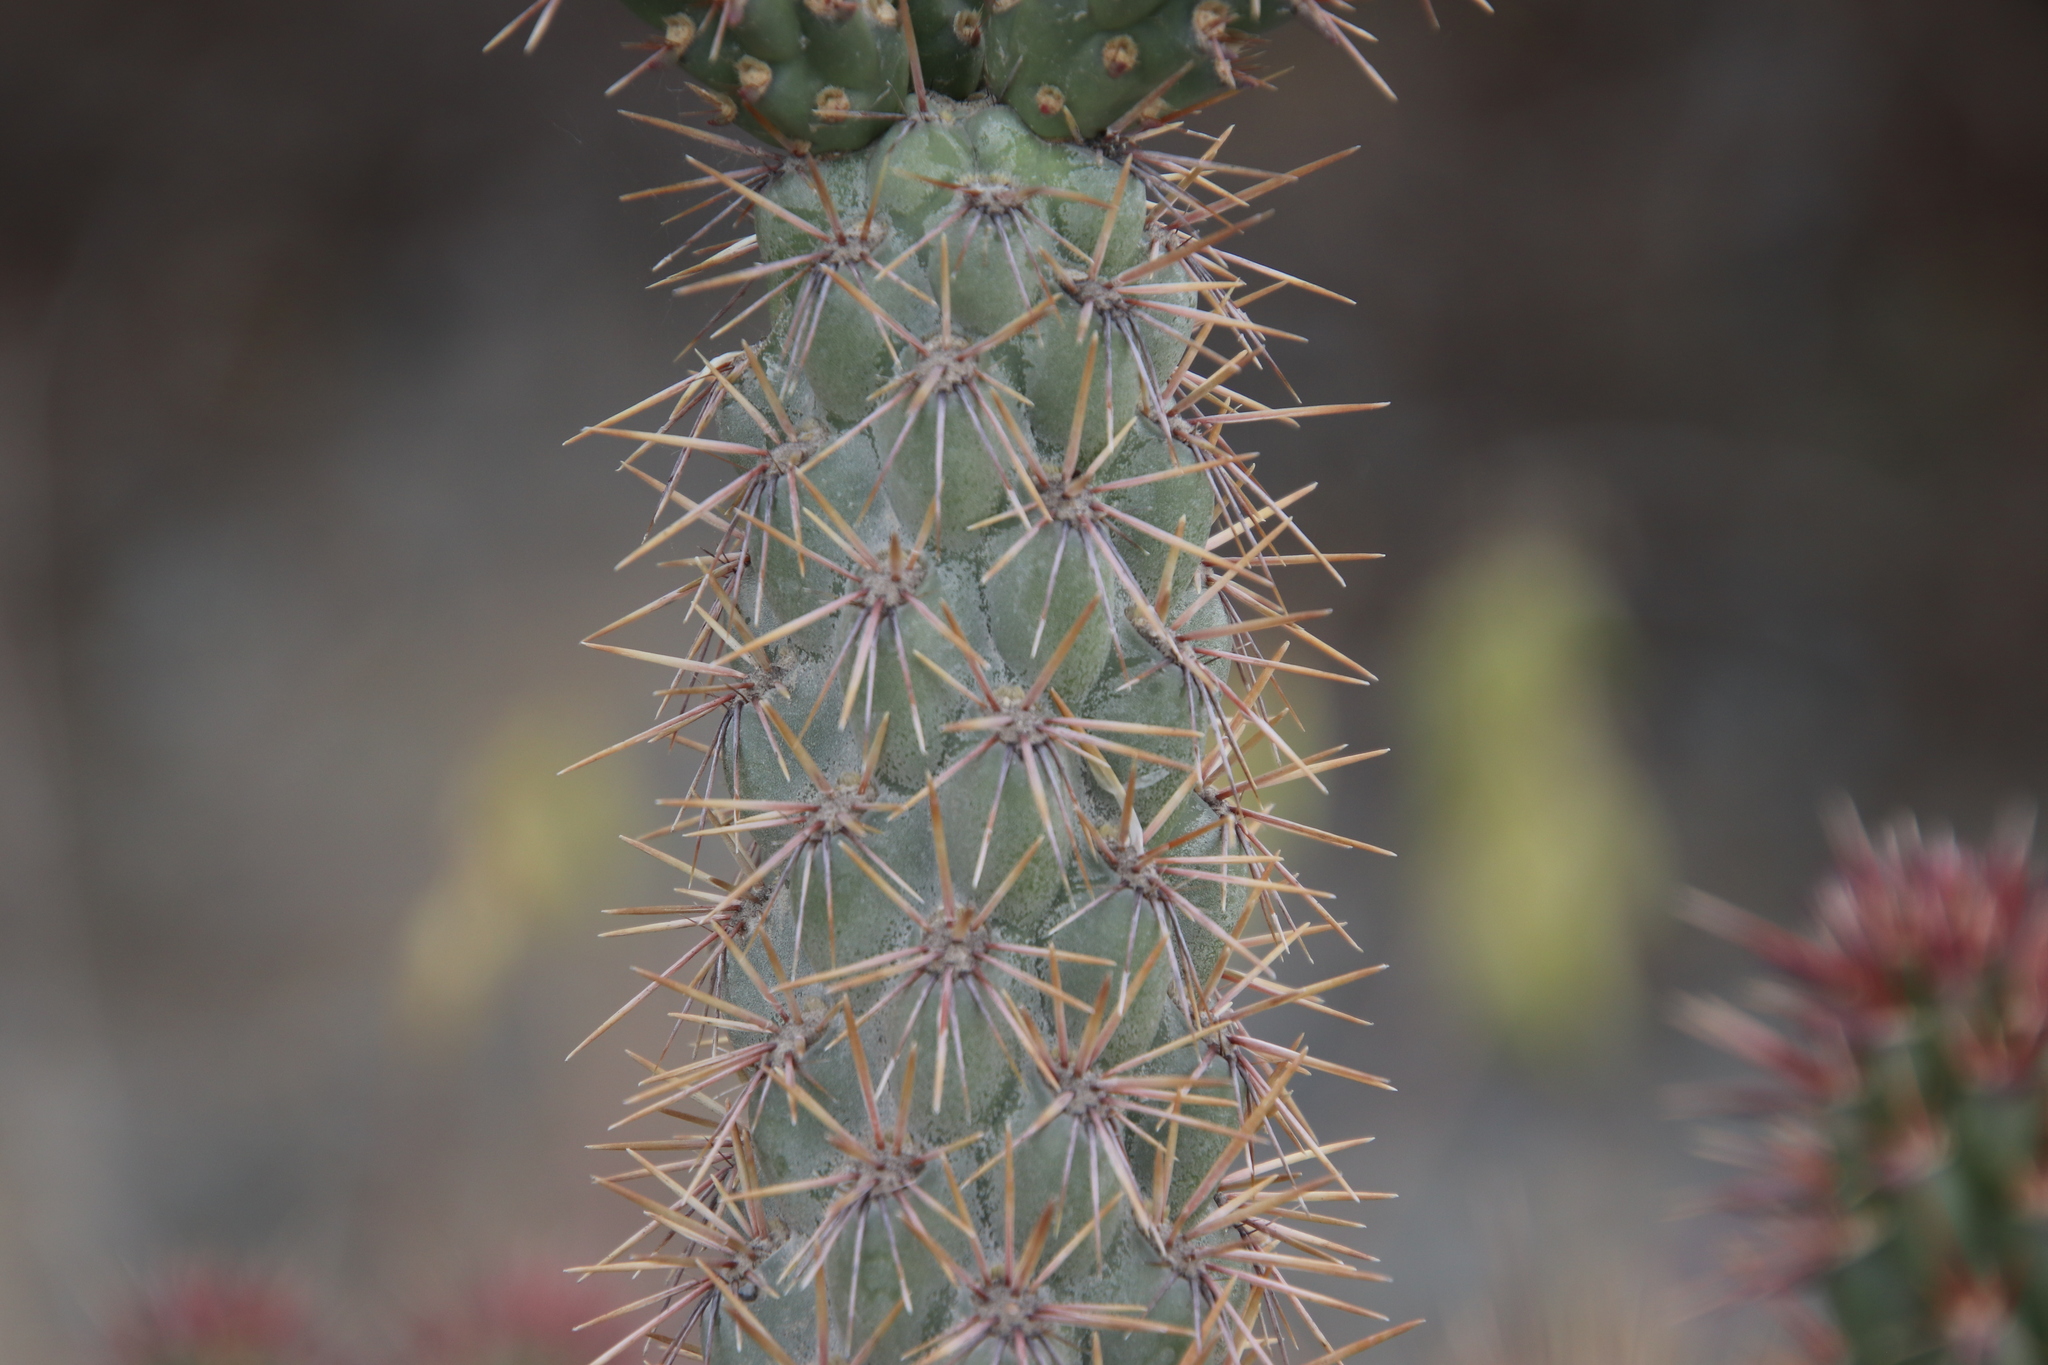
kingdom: Plantae
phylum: Tracheophyta
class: Magnoliopsida
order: Caryophyllales
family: Cactaceae
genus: Cylindropuntia
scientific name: Cylindropuntia prolifera
